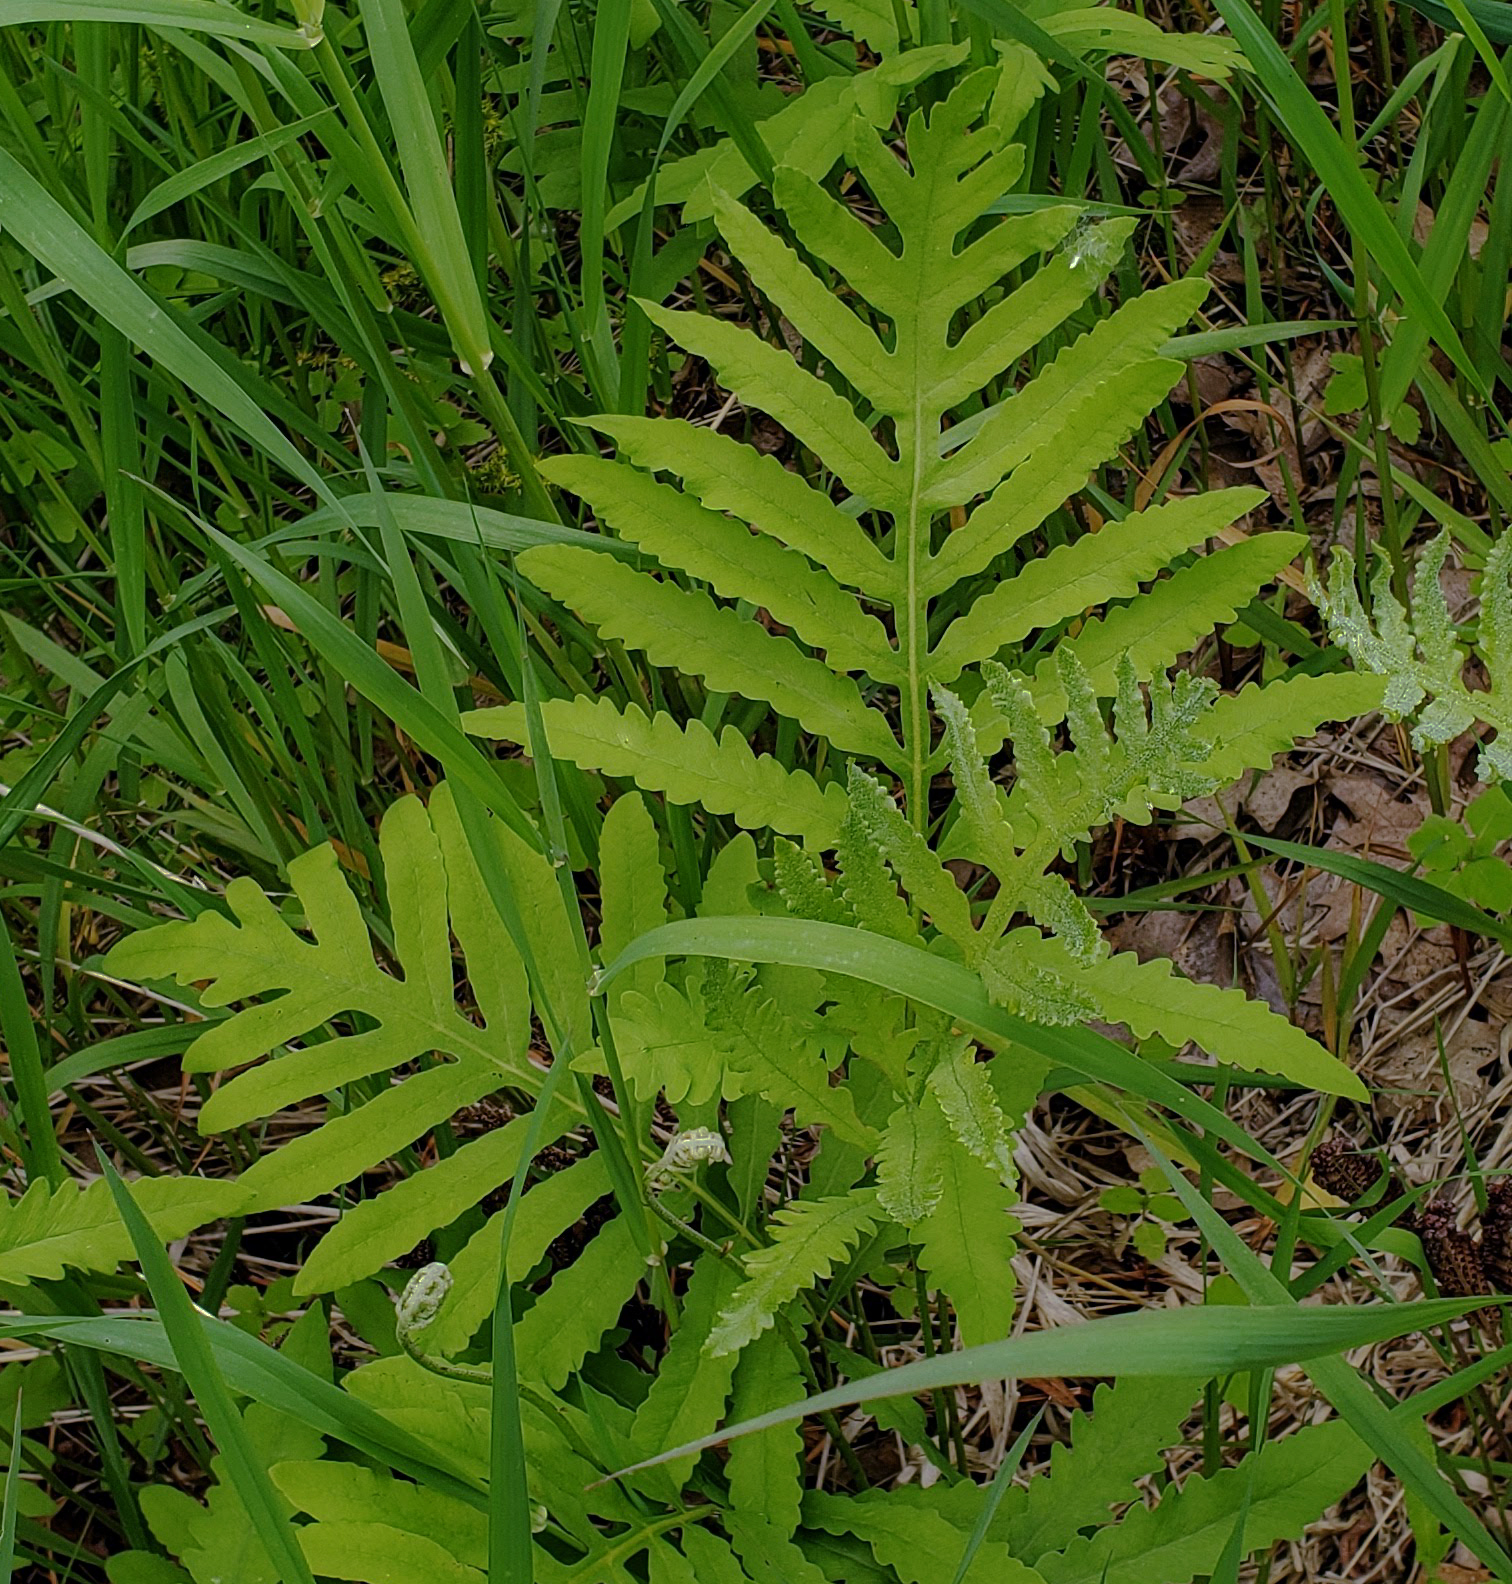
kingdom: Plantae
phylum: Tracheophyta
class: Polypodiopsida
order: Polypodiales
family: Onocleaceae
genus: Onoclea
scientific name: Onoclea sensibilis
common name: Sensitive fern
